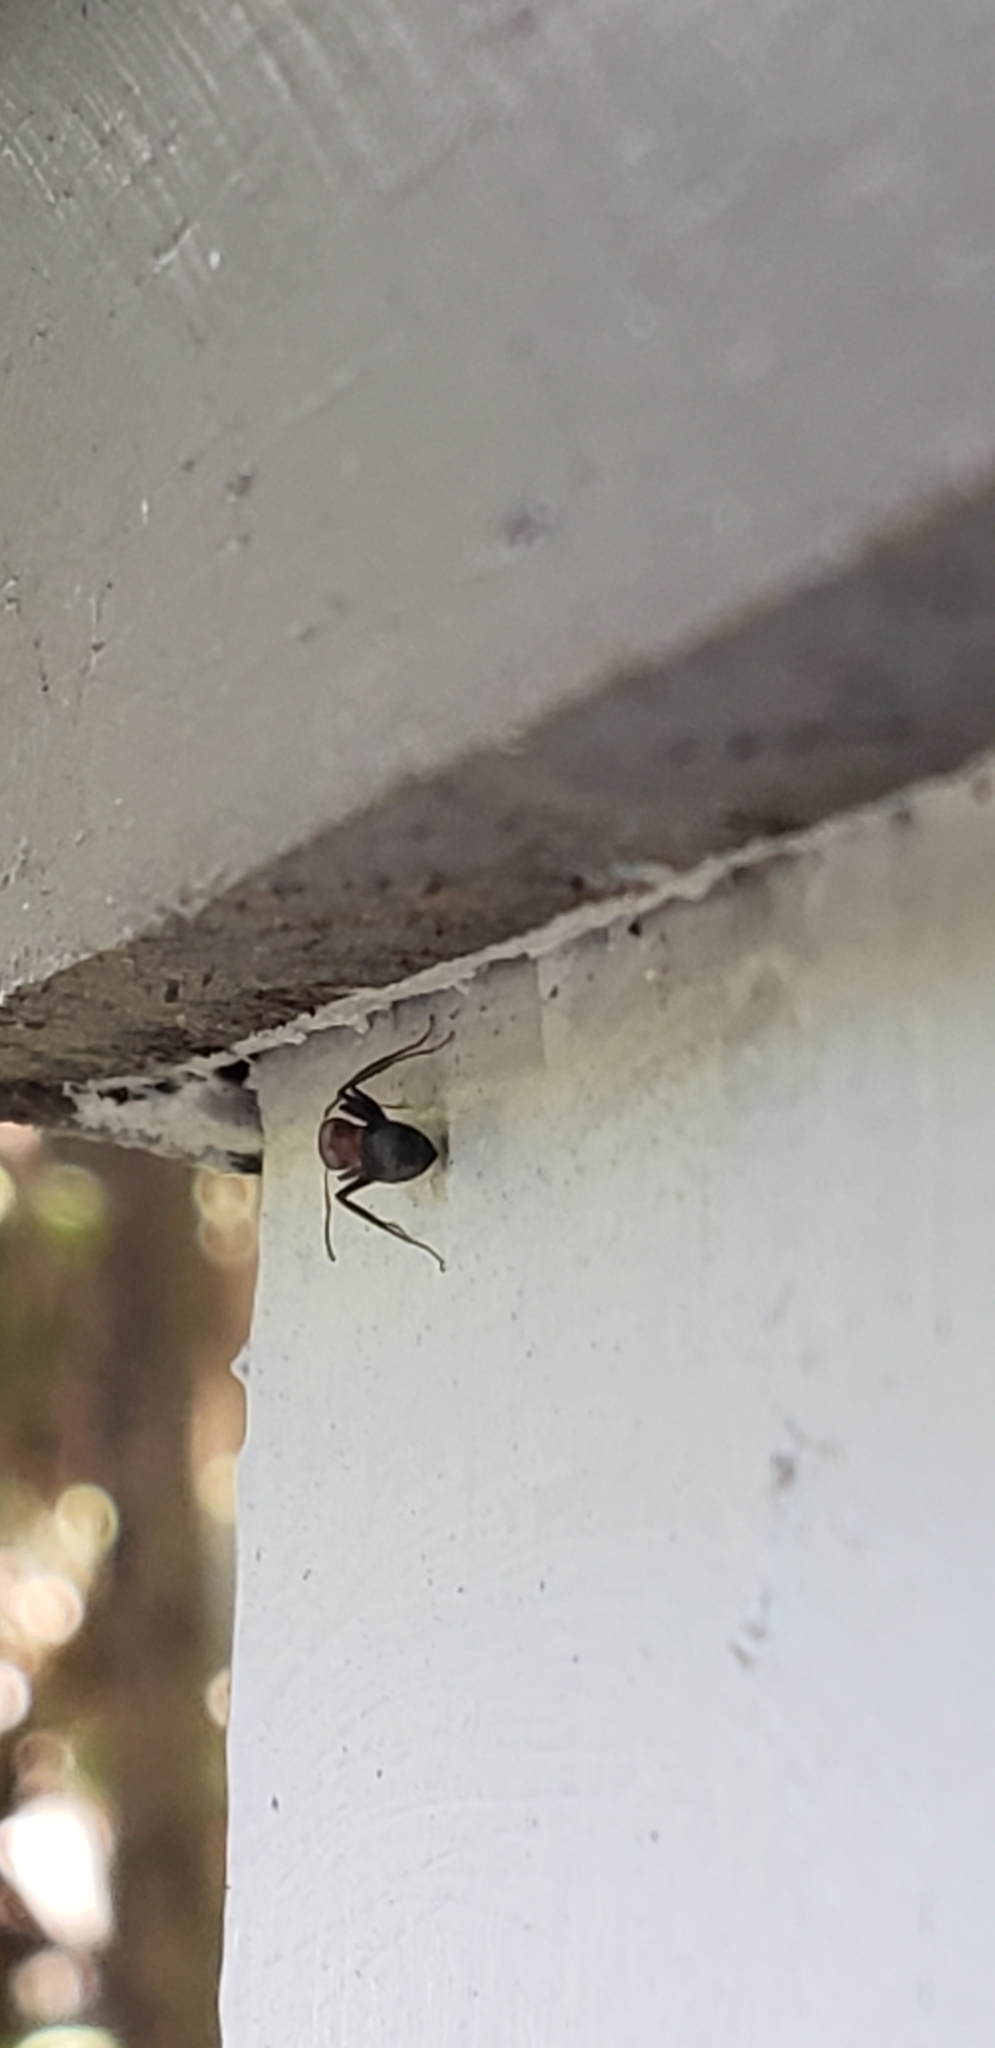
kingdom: Animalia
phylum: Arthropoda
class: Insecta
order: Hymenoptera
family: Formicidae
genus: Camponotus
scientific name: Camponotus planatus
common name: Compact carpenter ant
